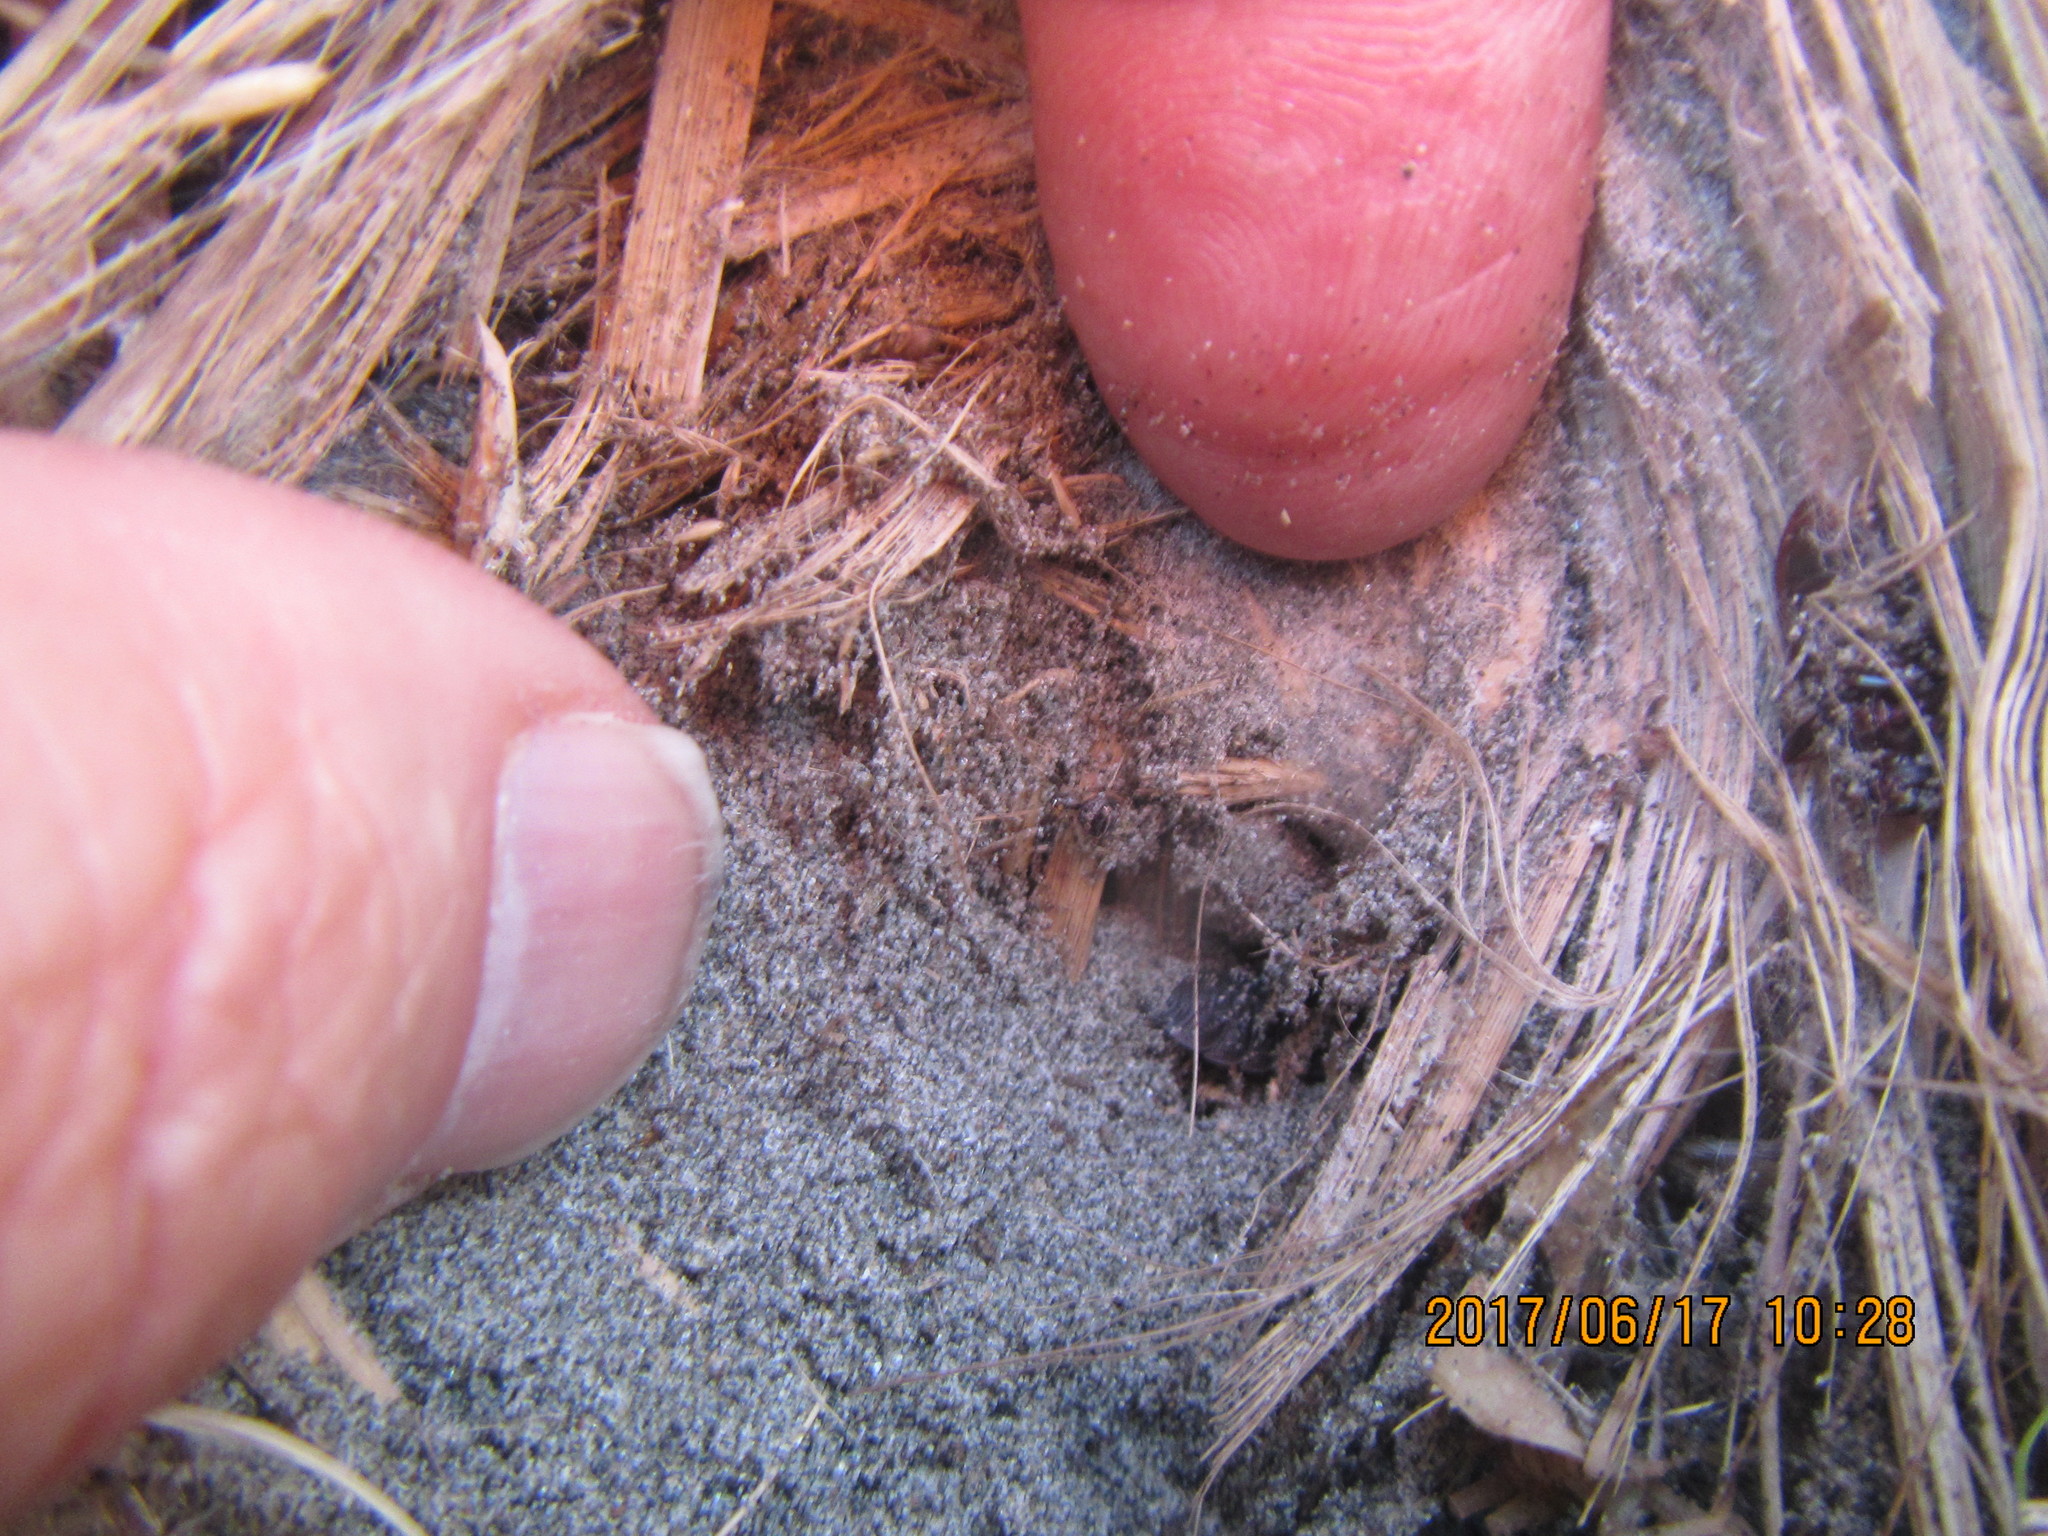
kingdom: Animalia
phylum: Arthropoda
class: Arachnida
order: Araneae
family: Mimetidae
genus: Australomimetus
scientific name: Australomimetus hartleyensis
